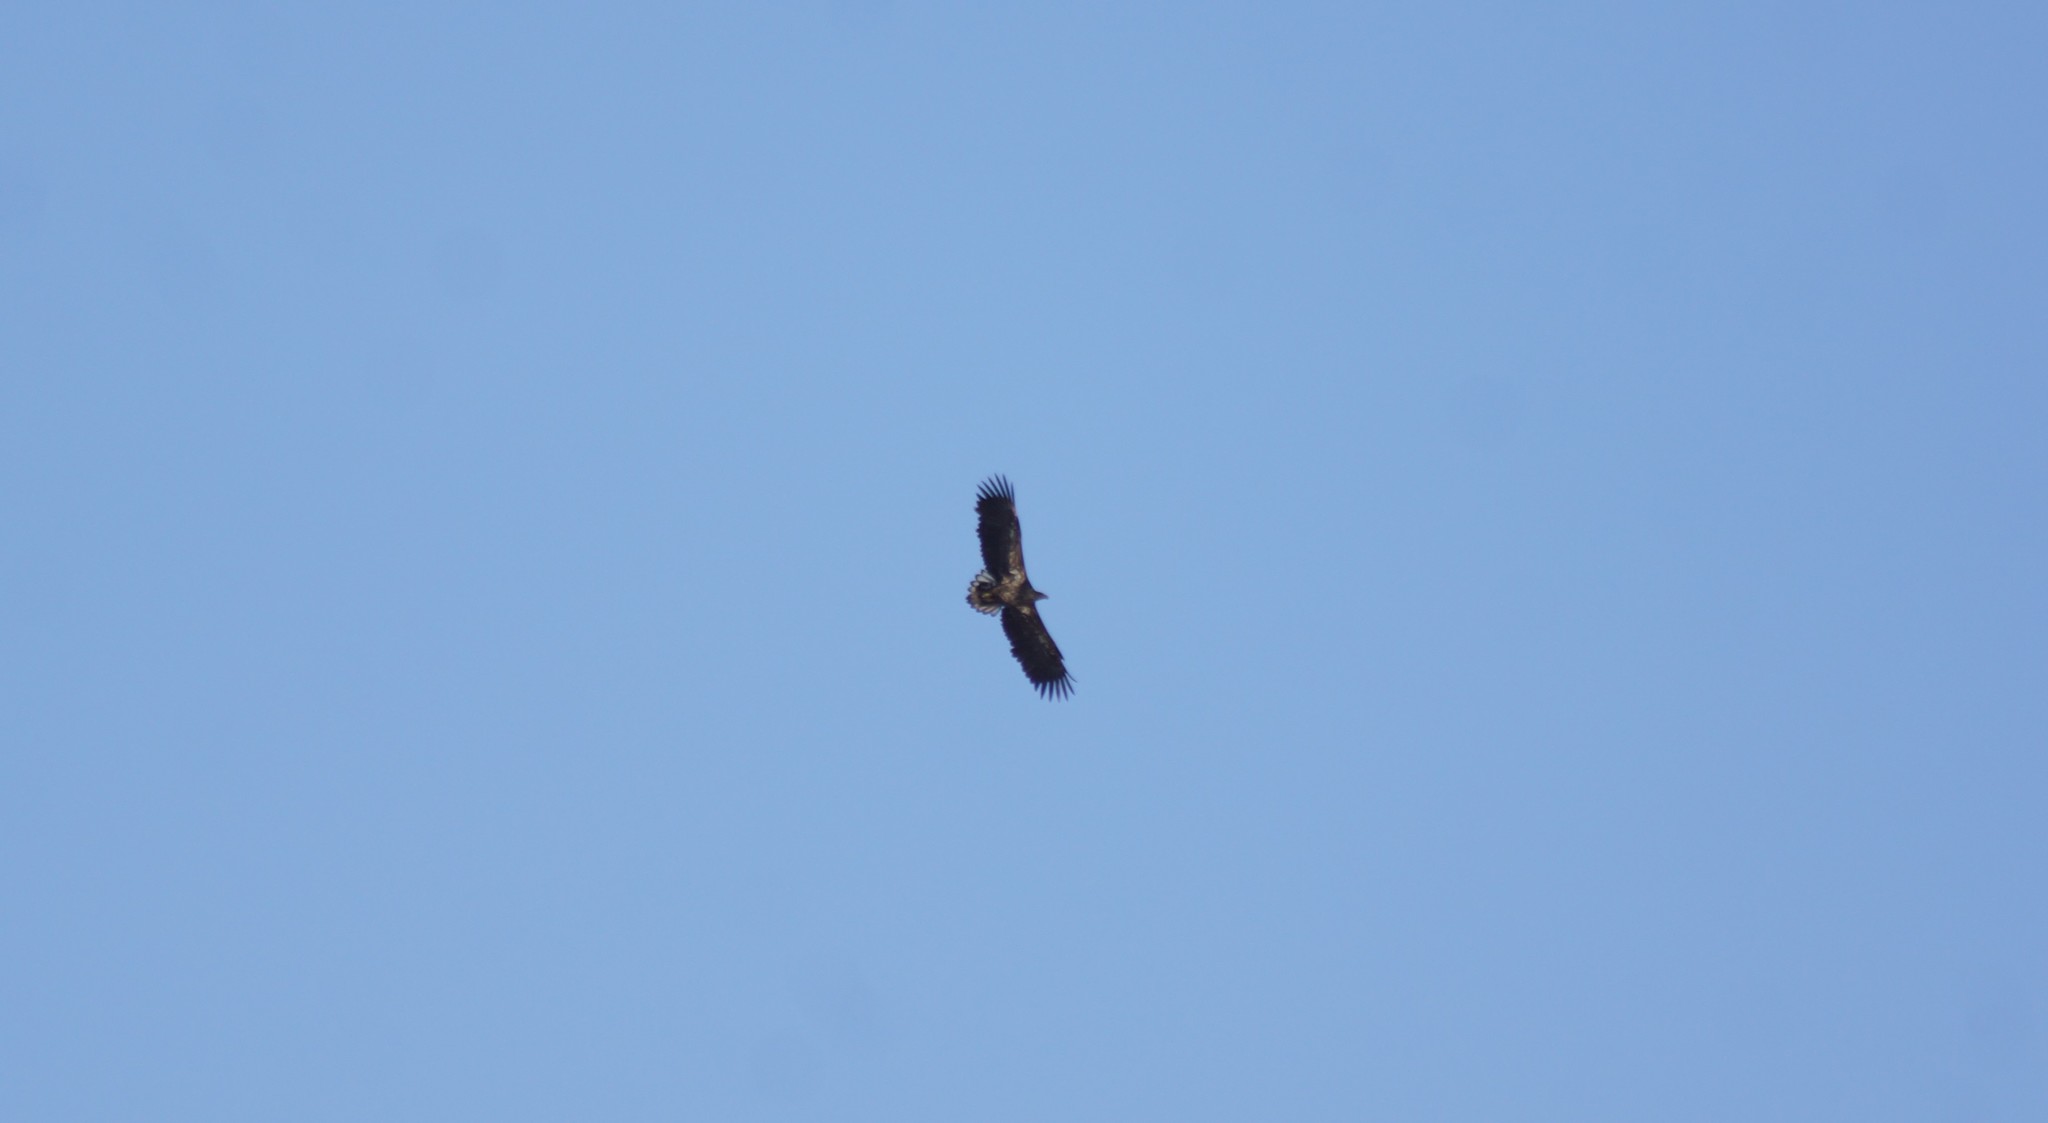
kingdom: Animalia
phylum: Chordata
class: Aves
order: Accipitriformes
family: Accipitridae
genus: Haliaeetus
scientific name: Haliaeetus albicilla
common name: White-tailed eagle
